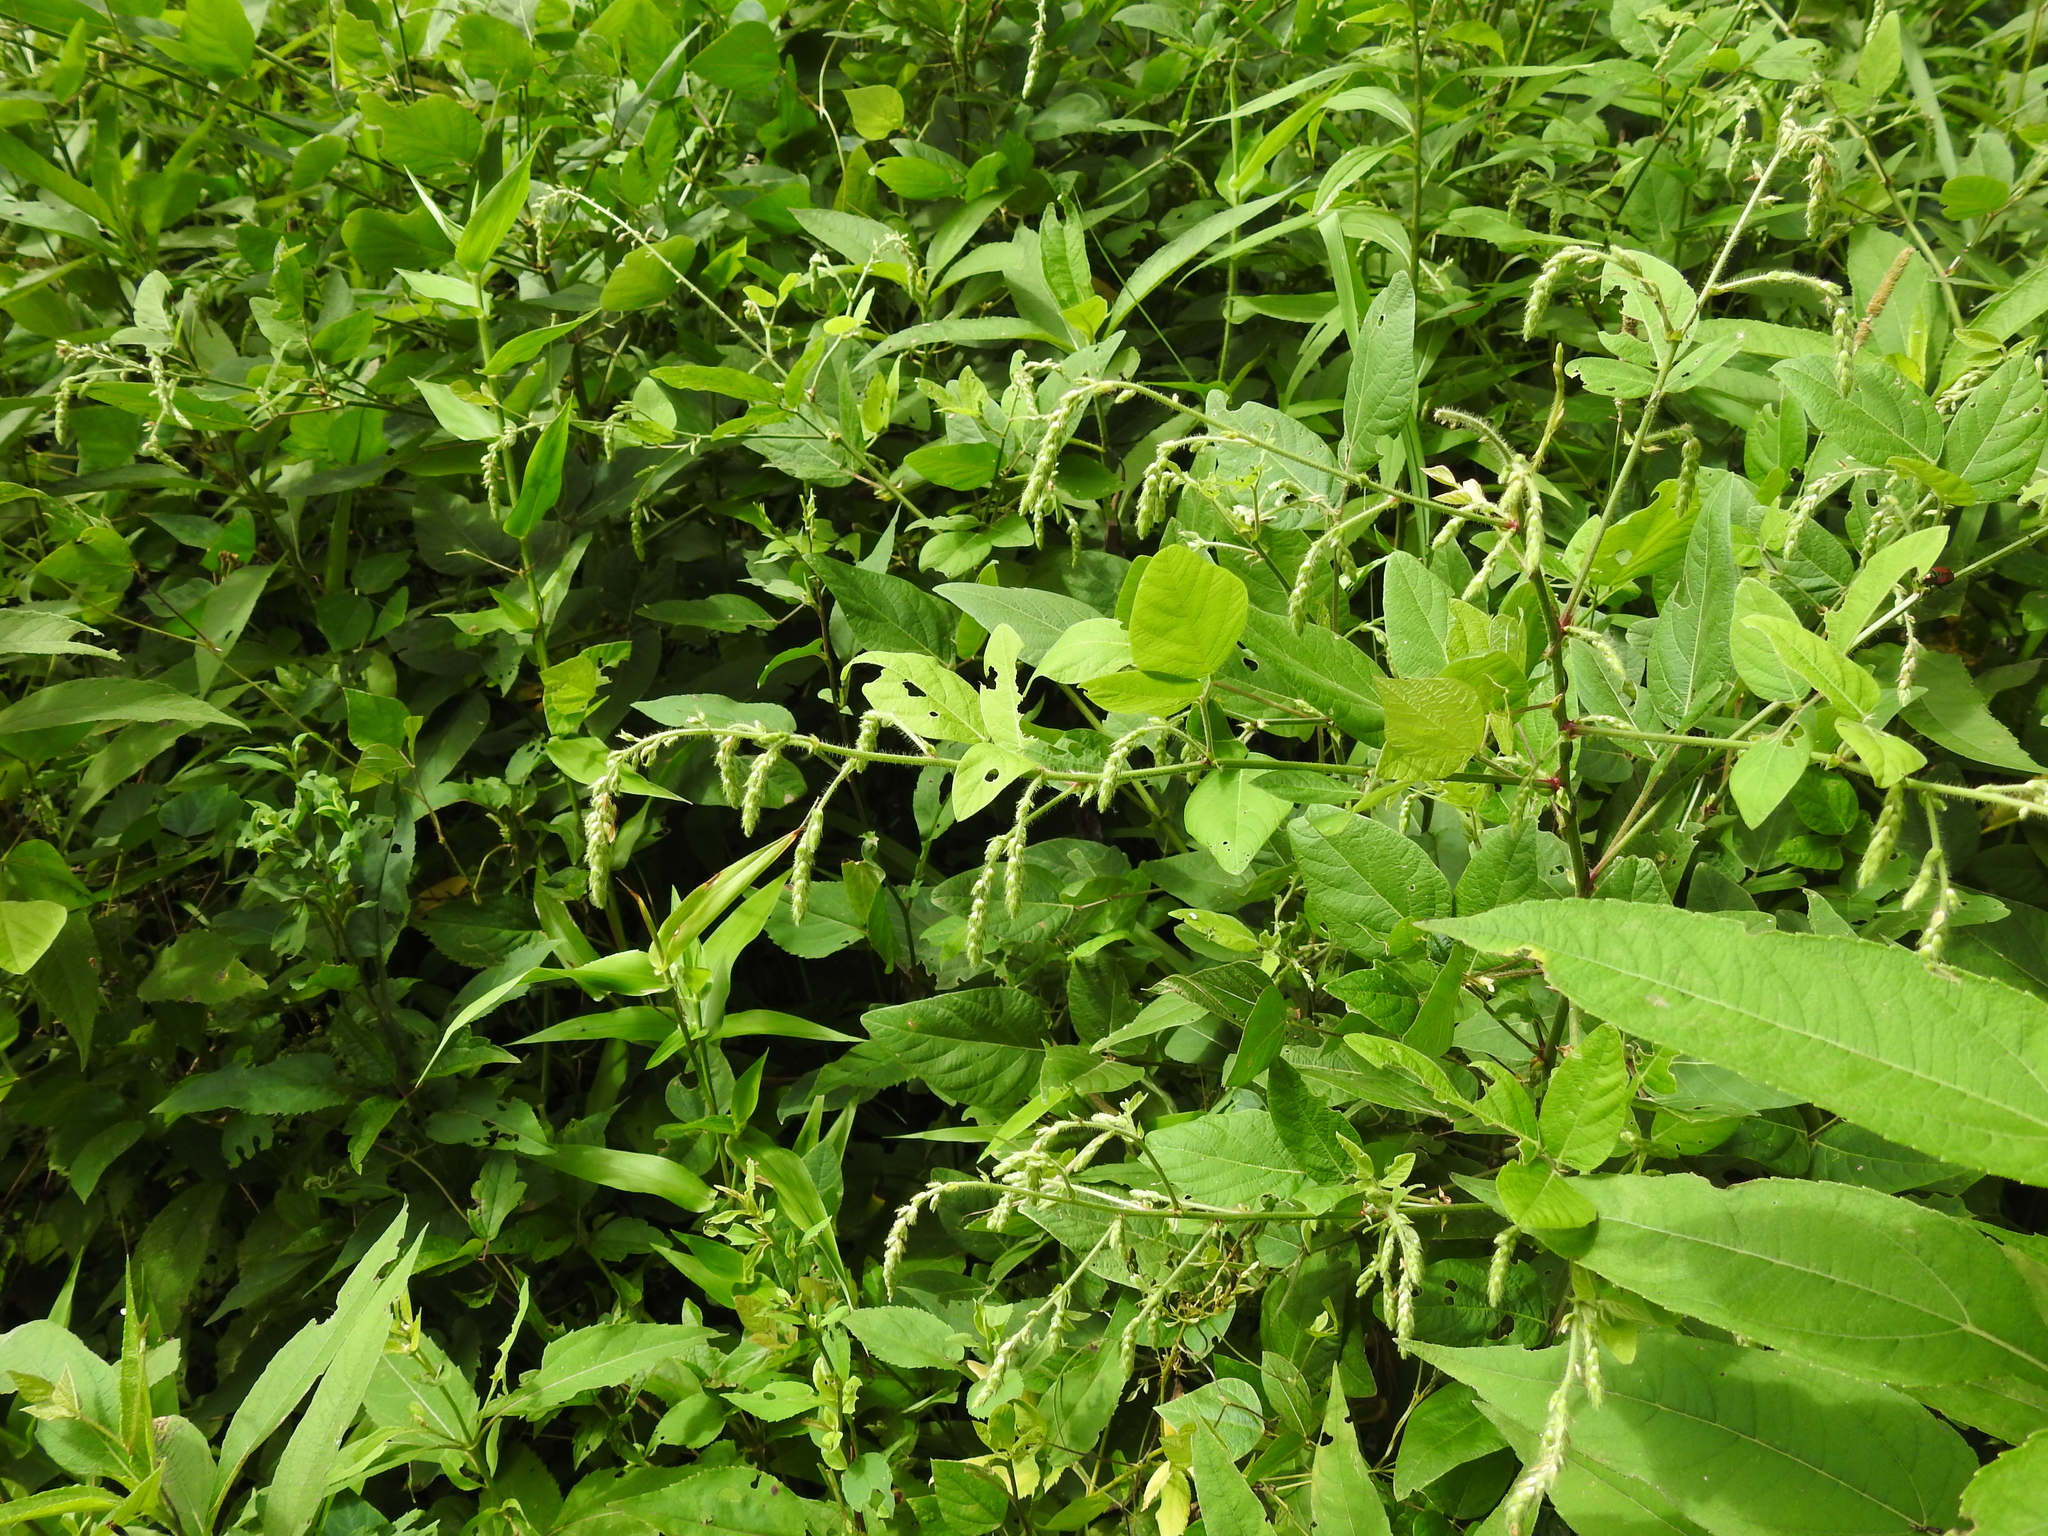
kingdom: Plantae
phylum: Tracheophyta
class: Magnoliopsida
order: Fabales
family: Fabaceae
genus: Desmodium
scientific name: Desmodium canescens
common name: Hoary tick-clover
